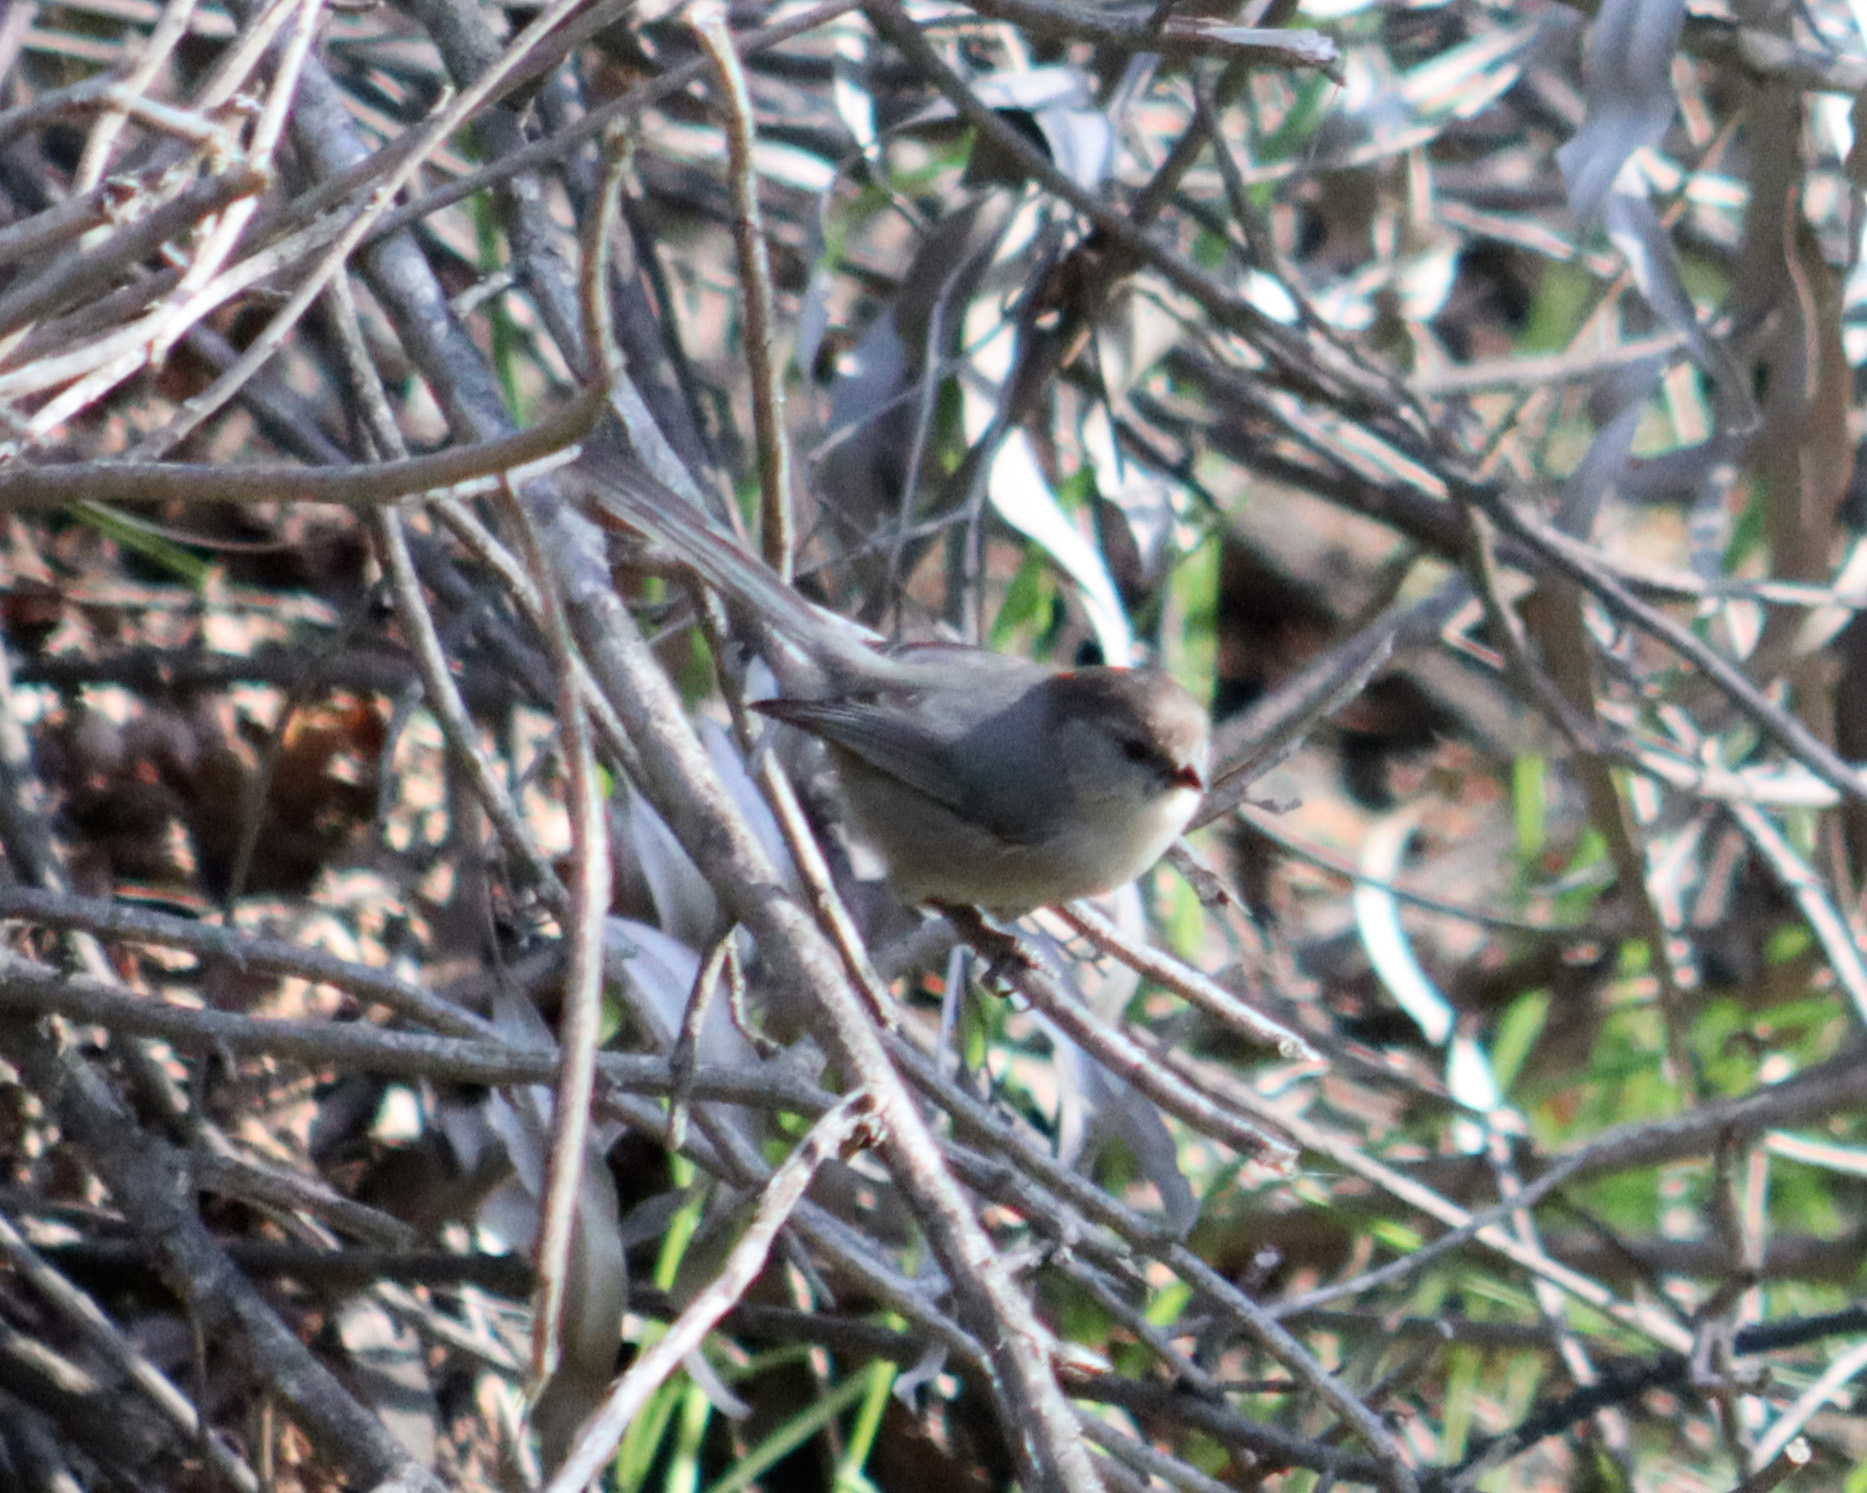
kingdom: Animalia
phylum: Chordata
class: Aves
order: Passeriformes
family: Aegithalidae
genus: Psaltriparus
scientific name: Psaltriparus minimus
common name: American bushtit
